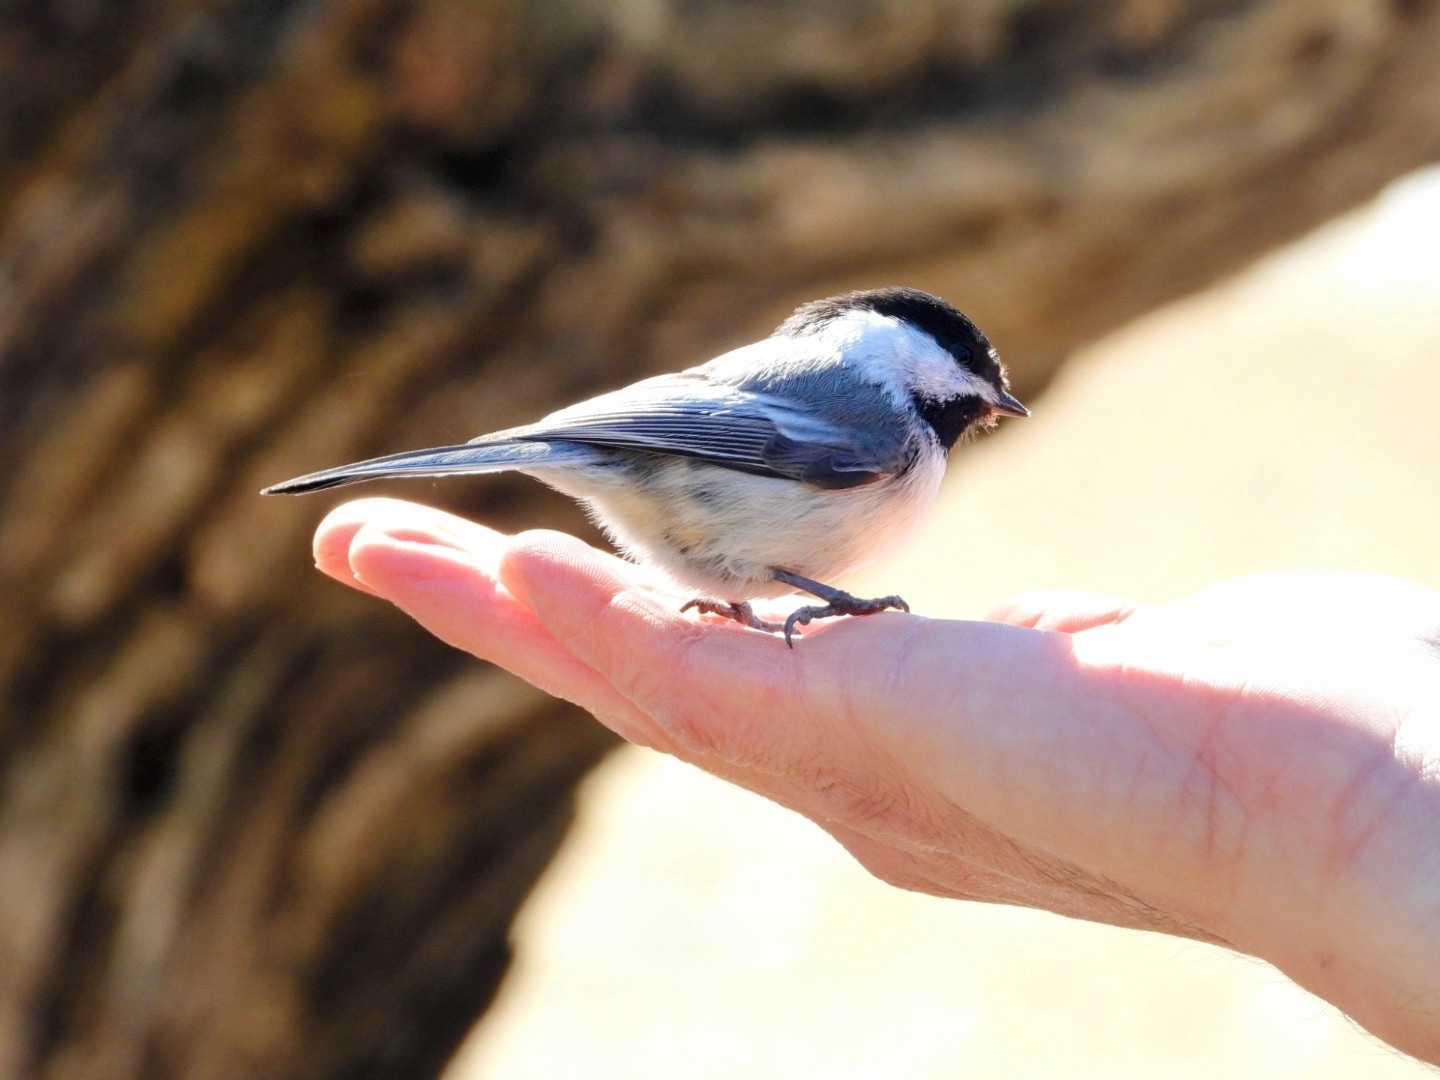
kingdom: Animalia
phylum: Chordata
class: Aves
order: Passeriformes
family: Paridae
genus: Poecile
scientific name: Poecile atricapillus
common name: Black-capped chickadee
